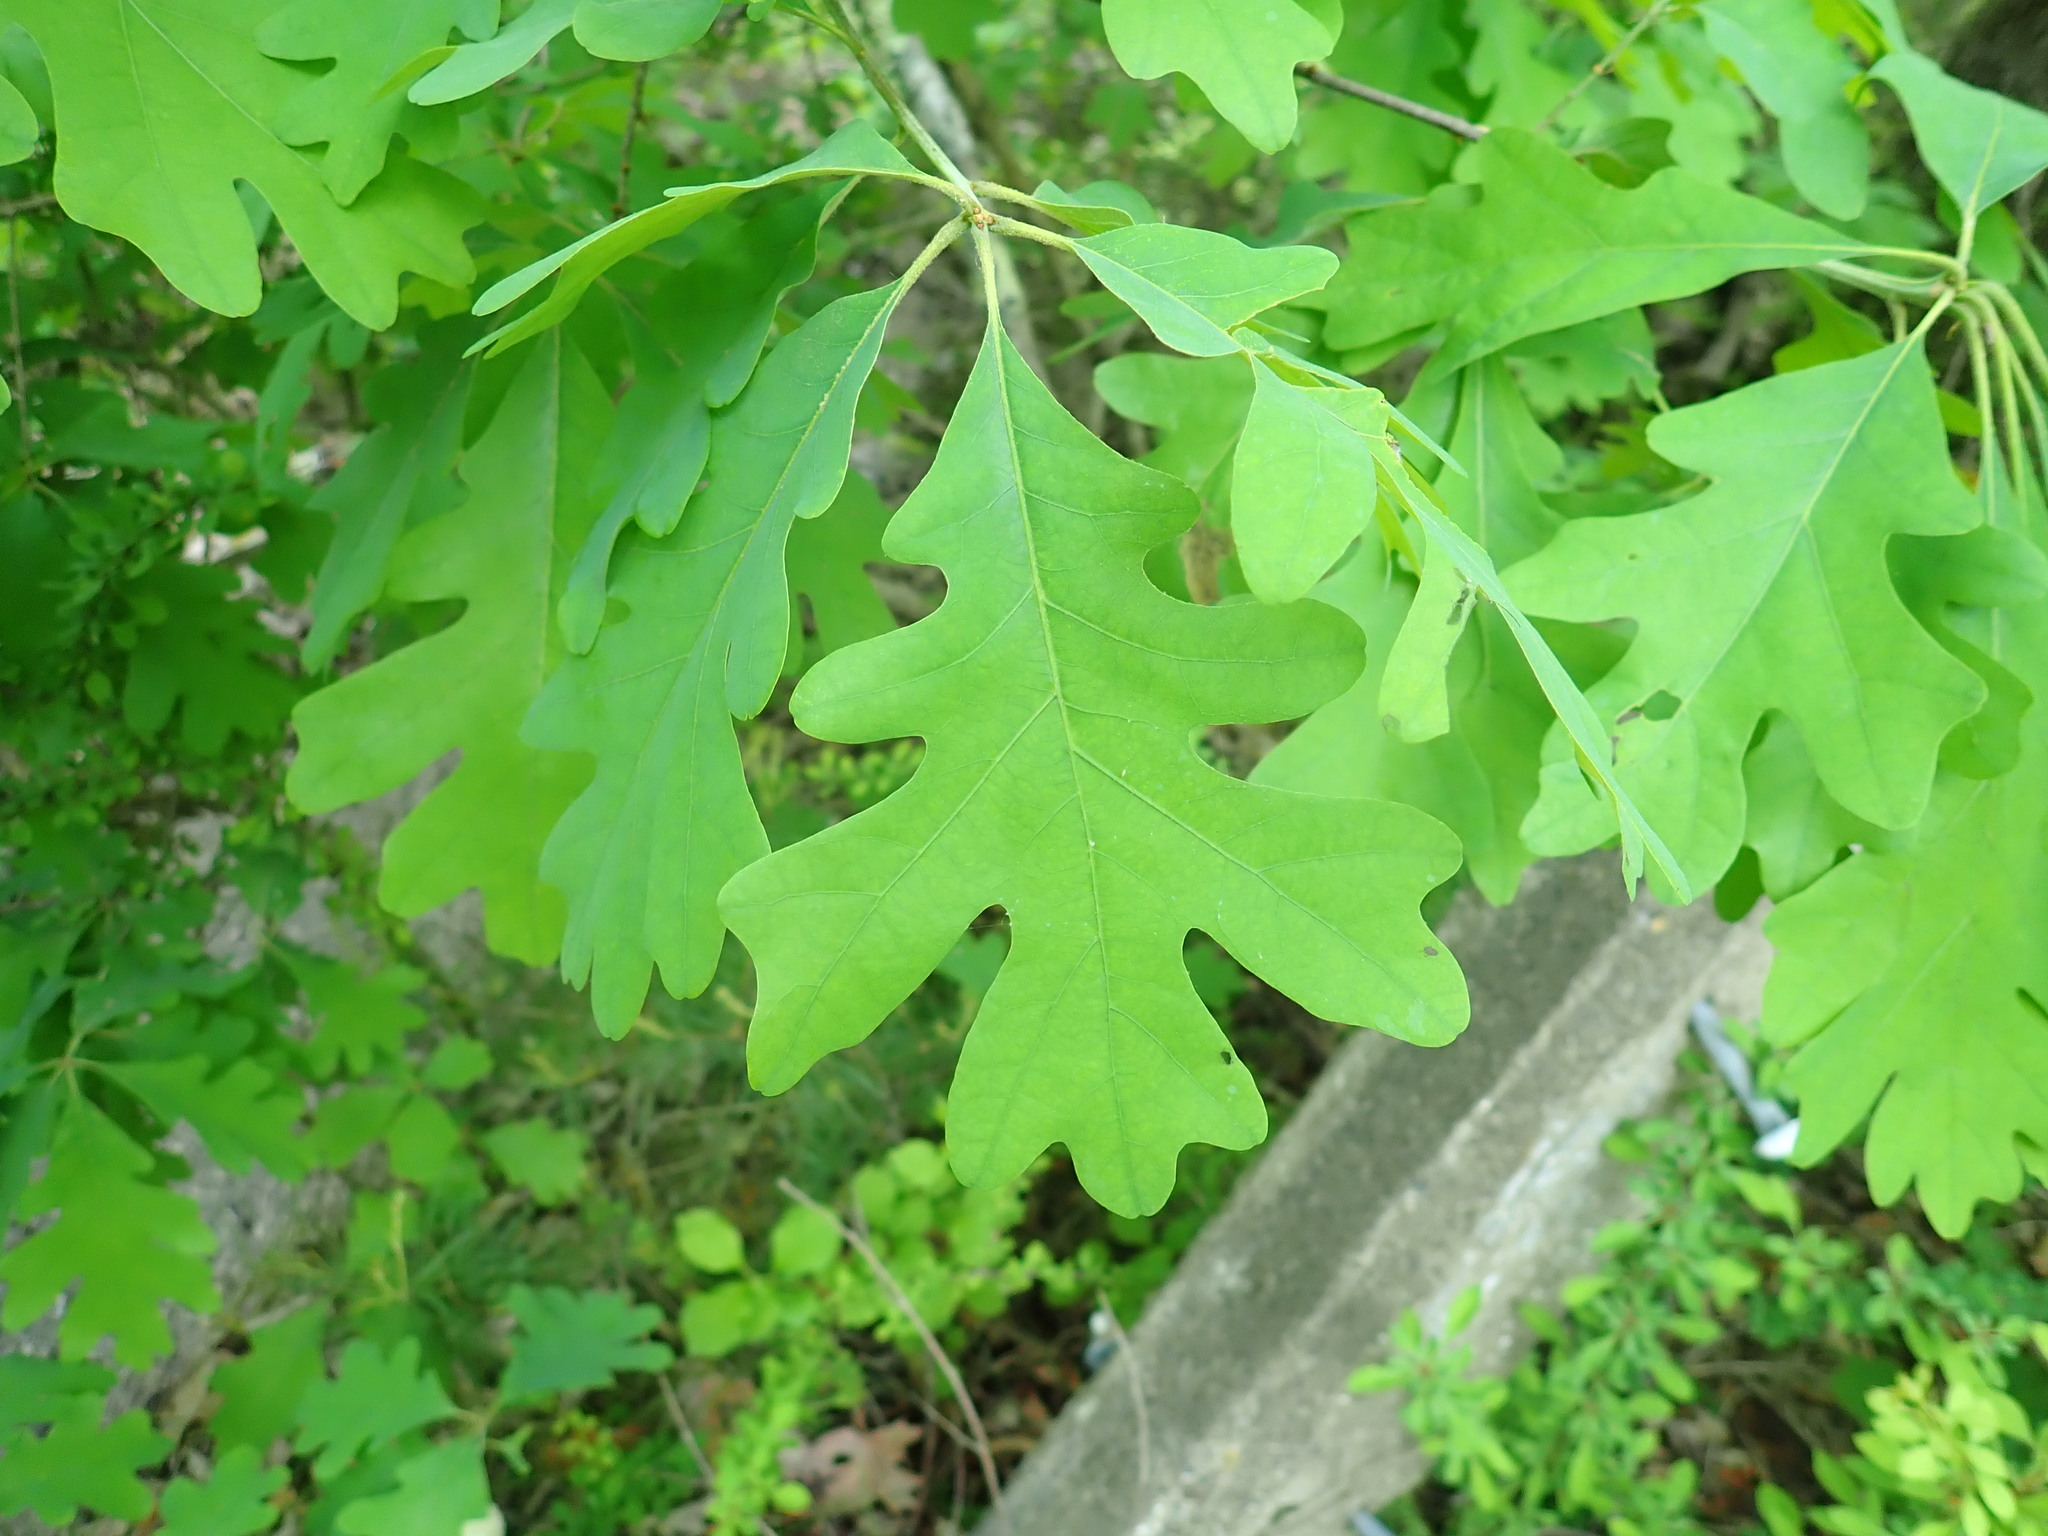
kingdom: Plantae
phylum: Tracheophyta
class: Magnoliopsida
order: Fagales
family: Fagaceae
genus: Quercus
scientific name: Quercus alba
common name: White oak
